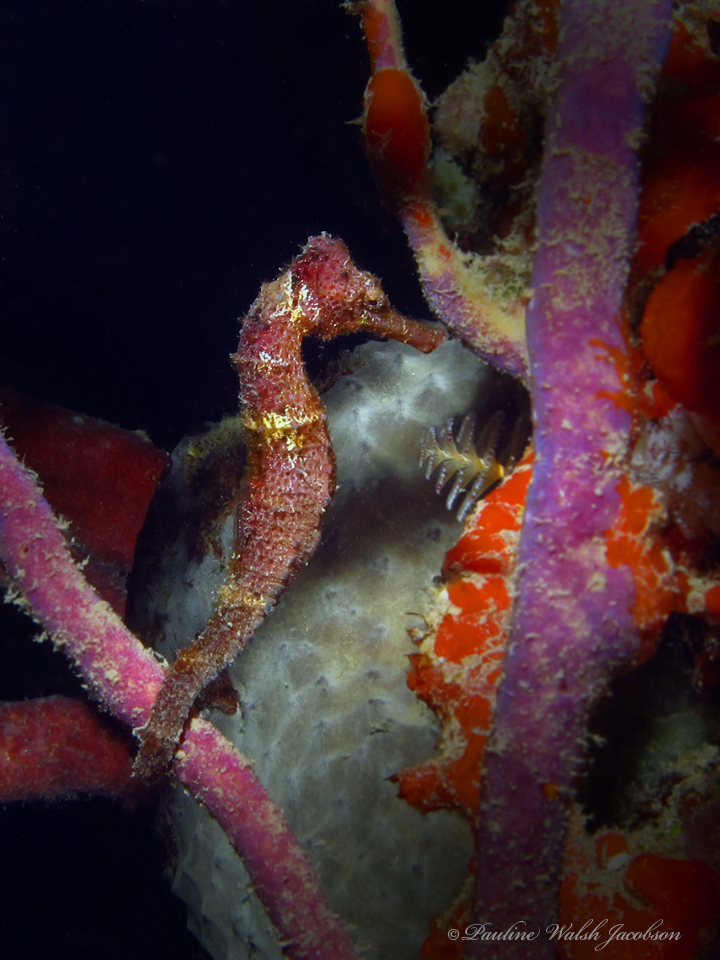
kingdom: Animalia
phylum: Chordata
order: Syngnathiformes
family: Syngnathidae
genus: Hippocampus
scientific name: Hippocampus reidi
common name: Slender seahorse
